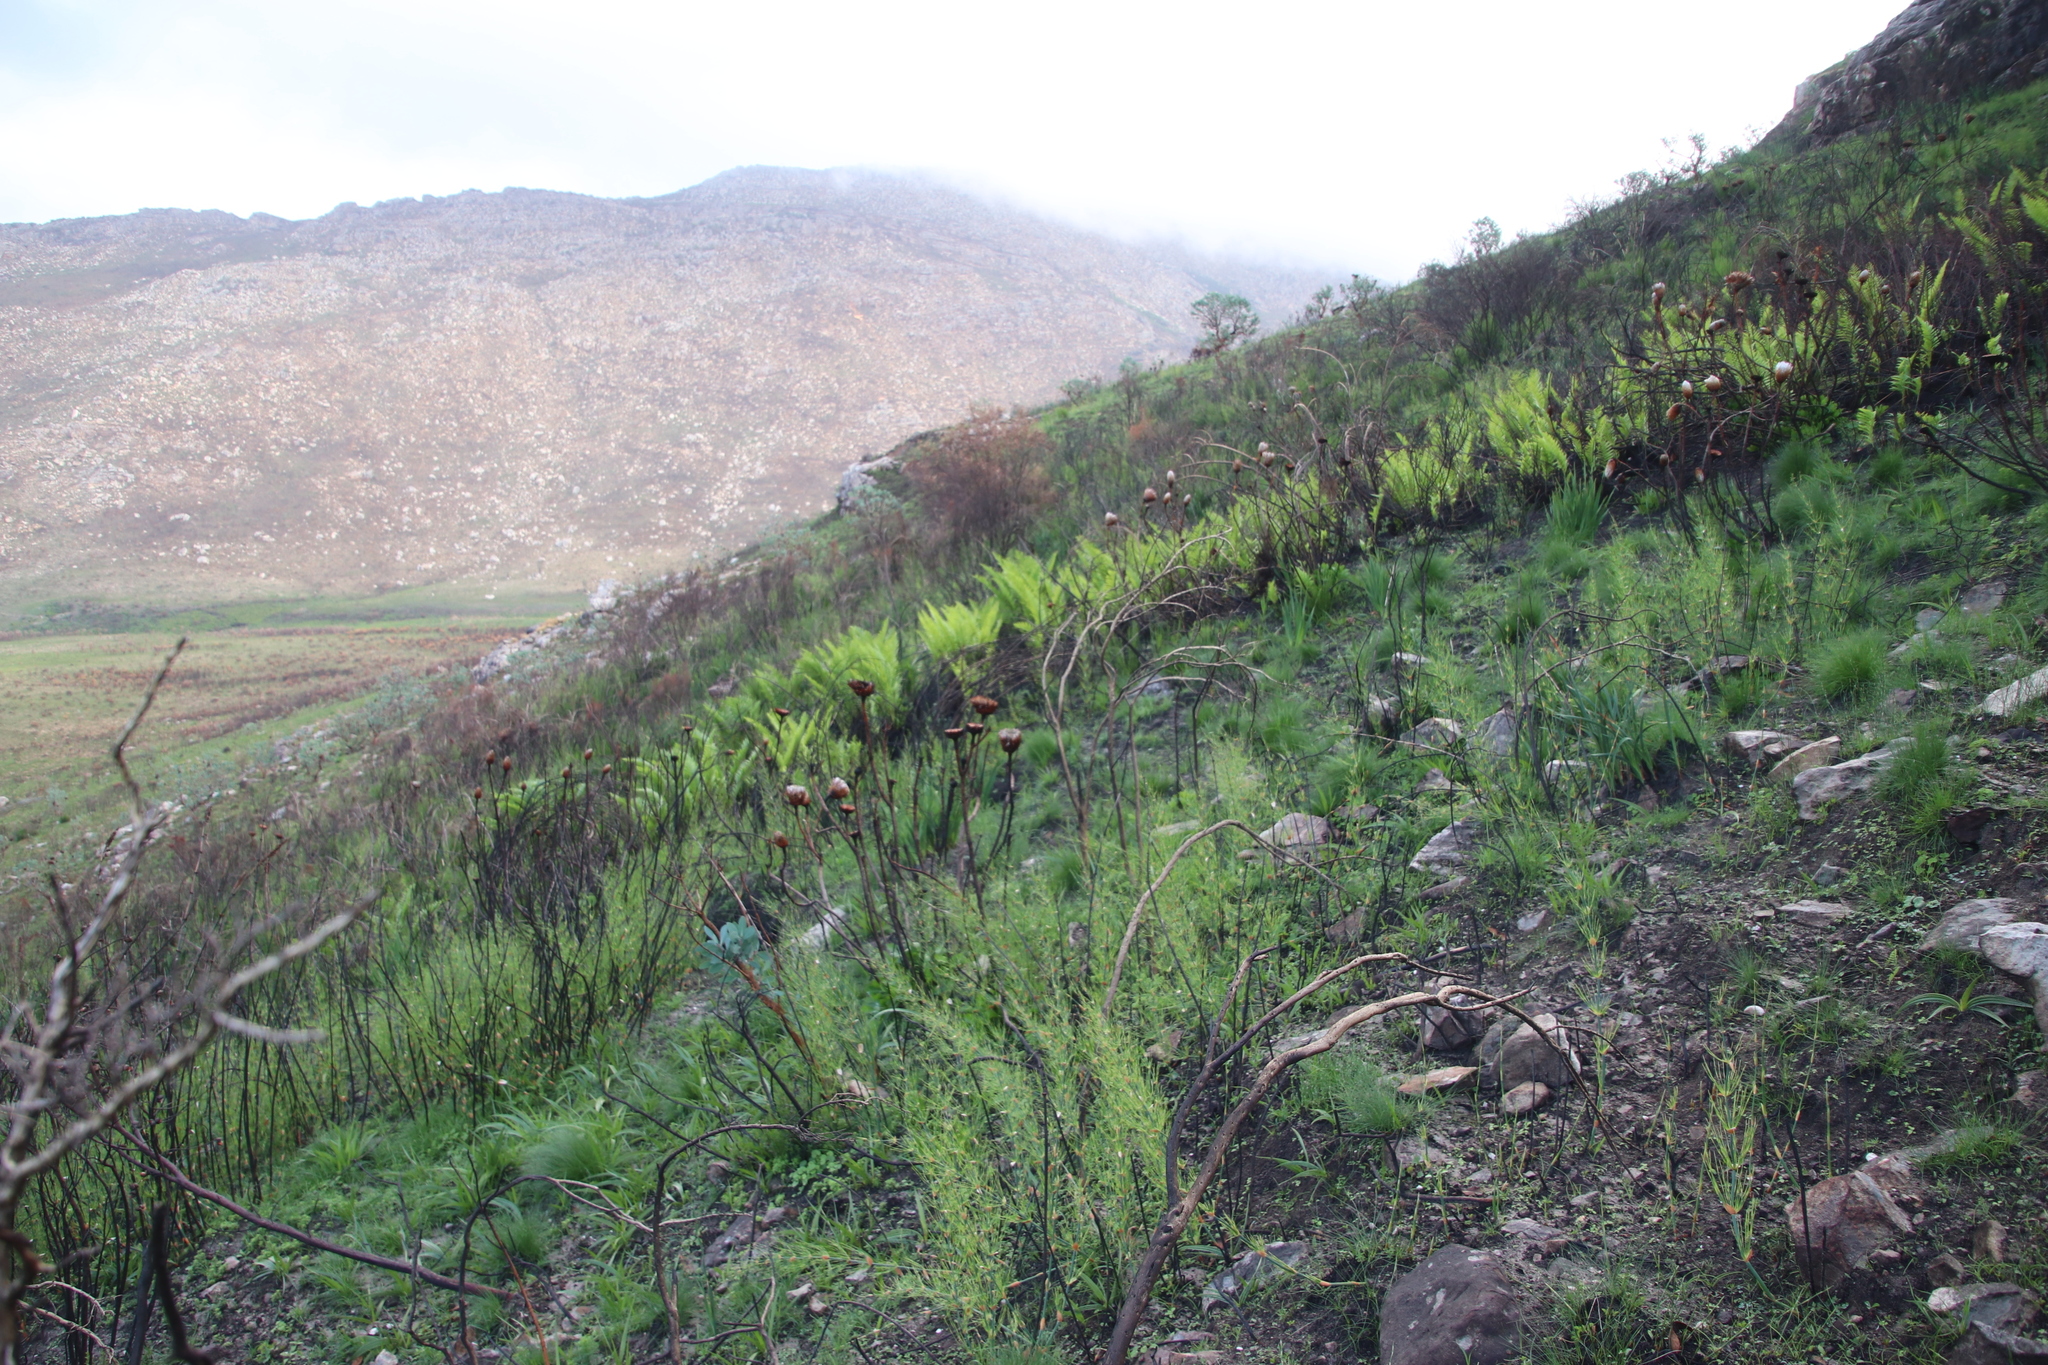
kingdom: Plantae
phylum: Tracheophyta
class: Polypodiopsida
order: Osmundales
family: Osmundaceae
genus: Todea
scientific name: Todea barbara
